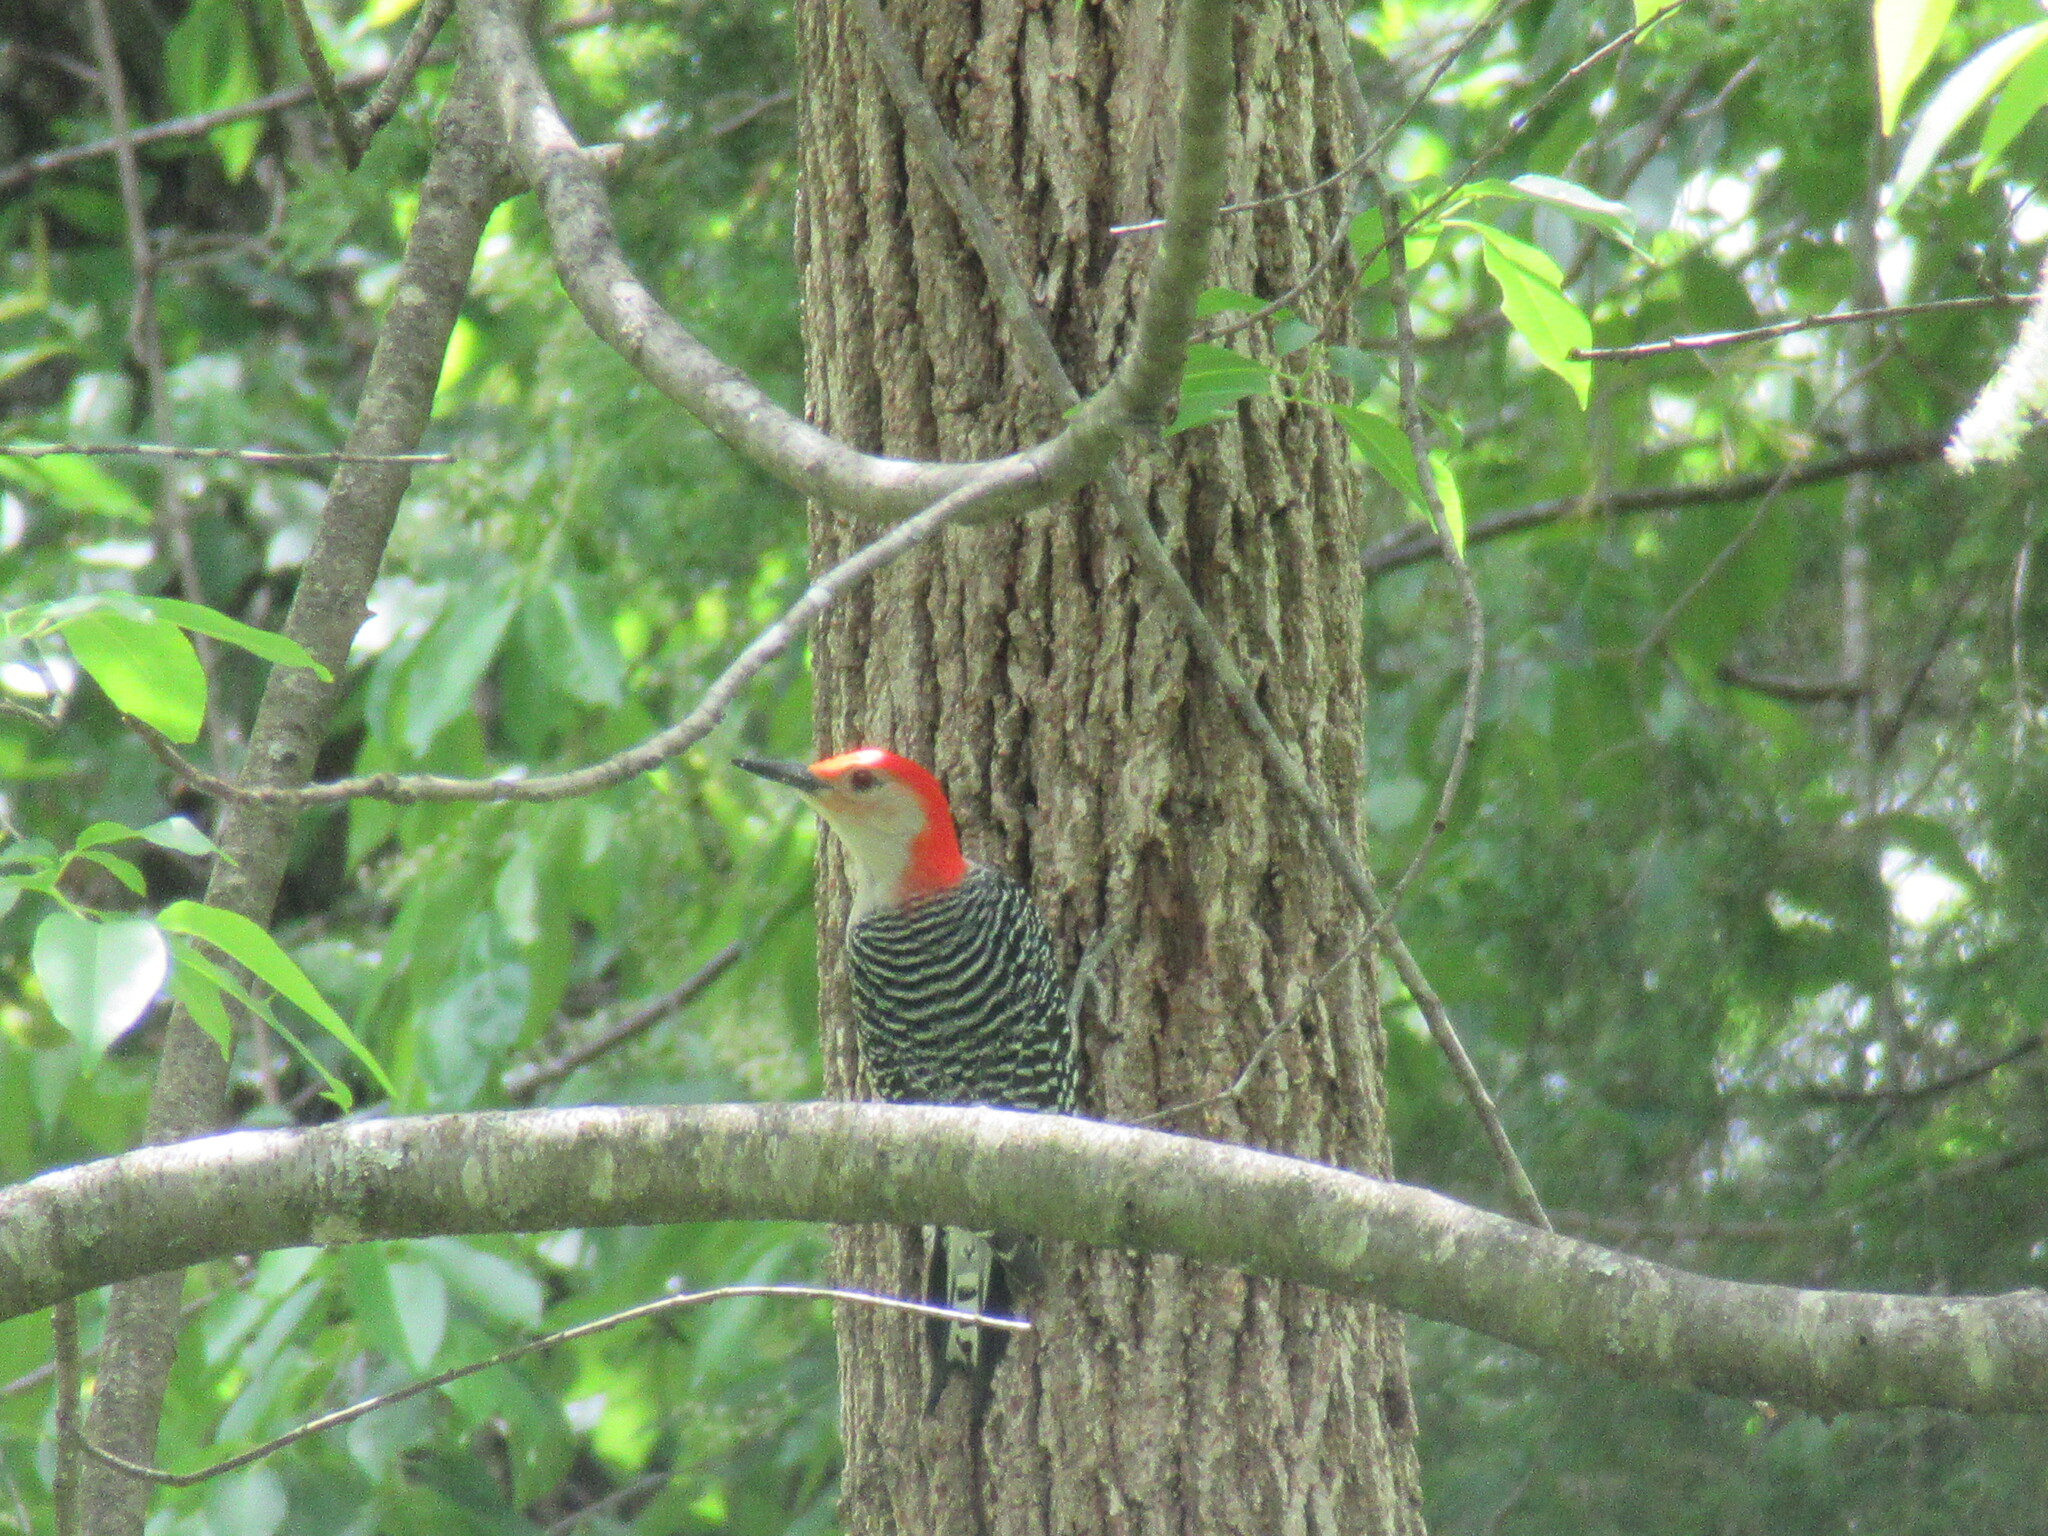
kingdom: Animalia
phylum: Chordata
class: Aves
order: Piciformes
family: Picidae
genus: Melanerpes
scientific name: Melanerpes carolinus
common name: Red-bellied woodpecker
